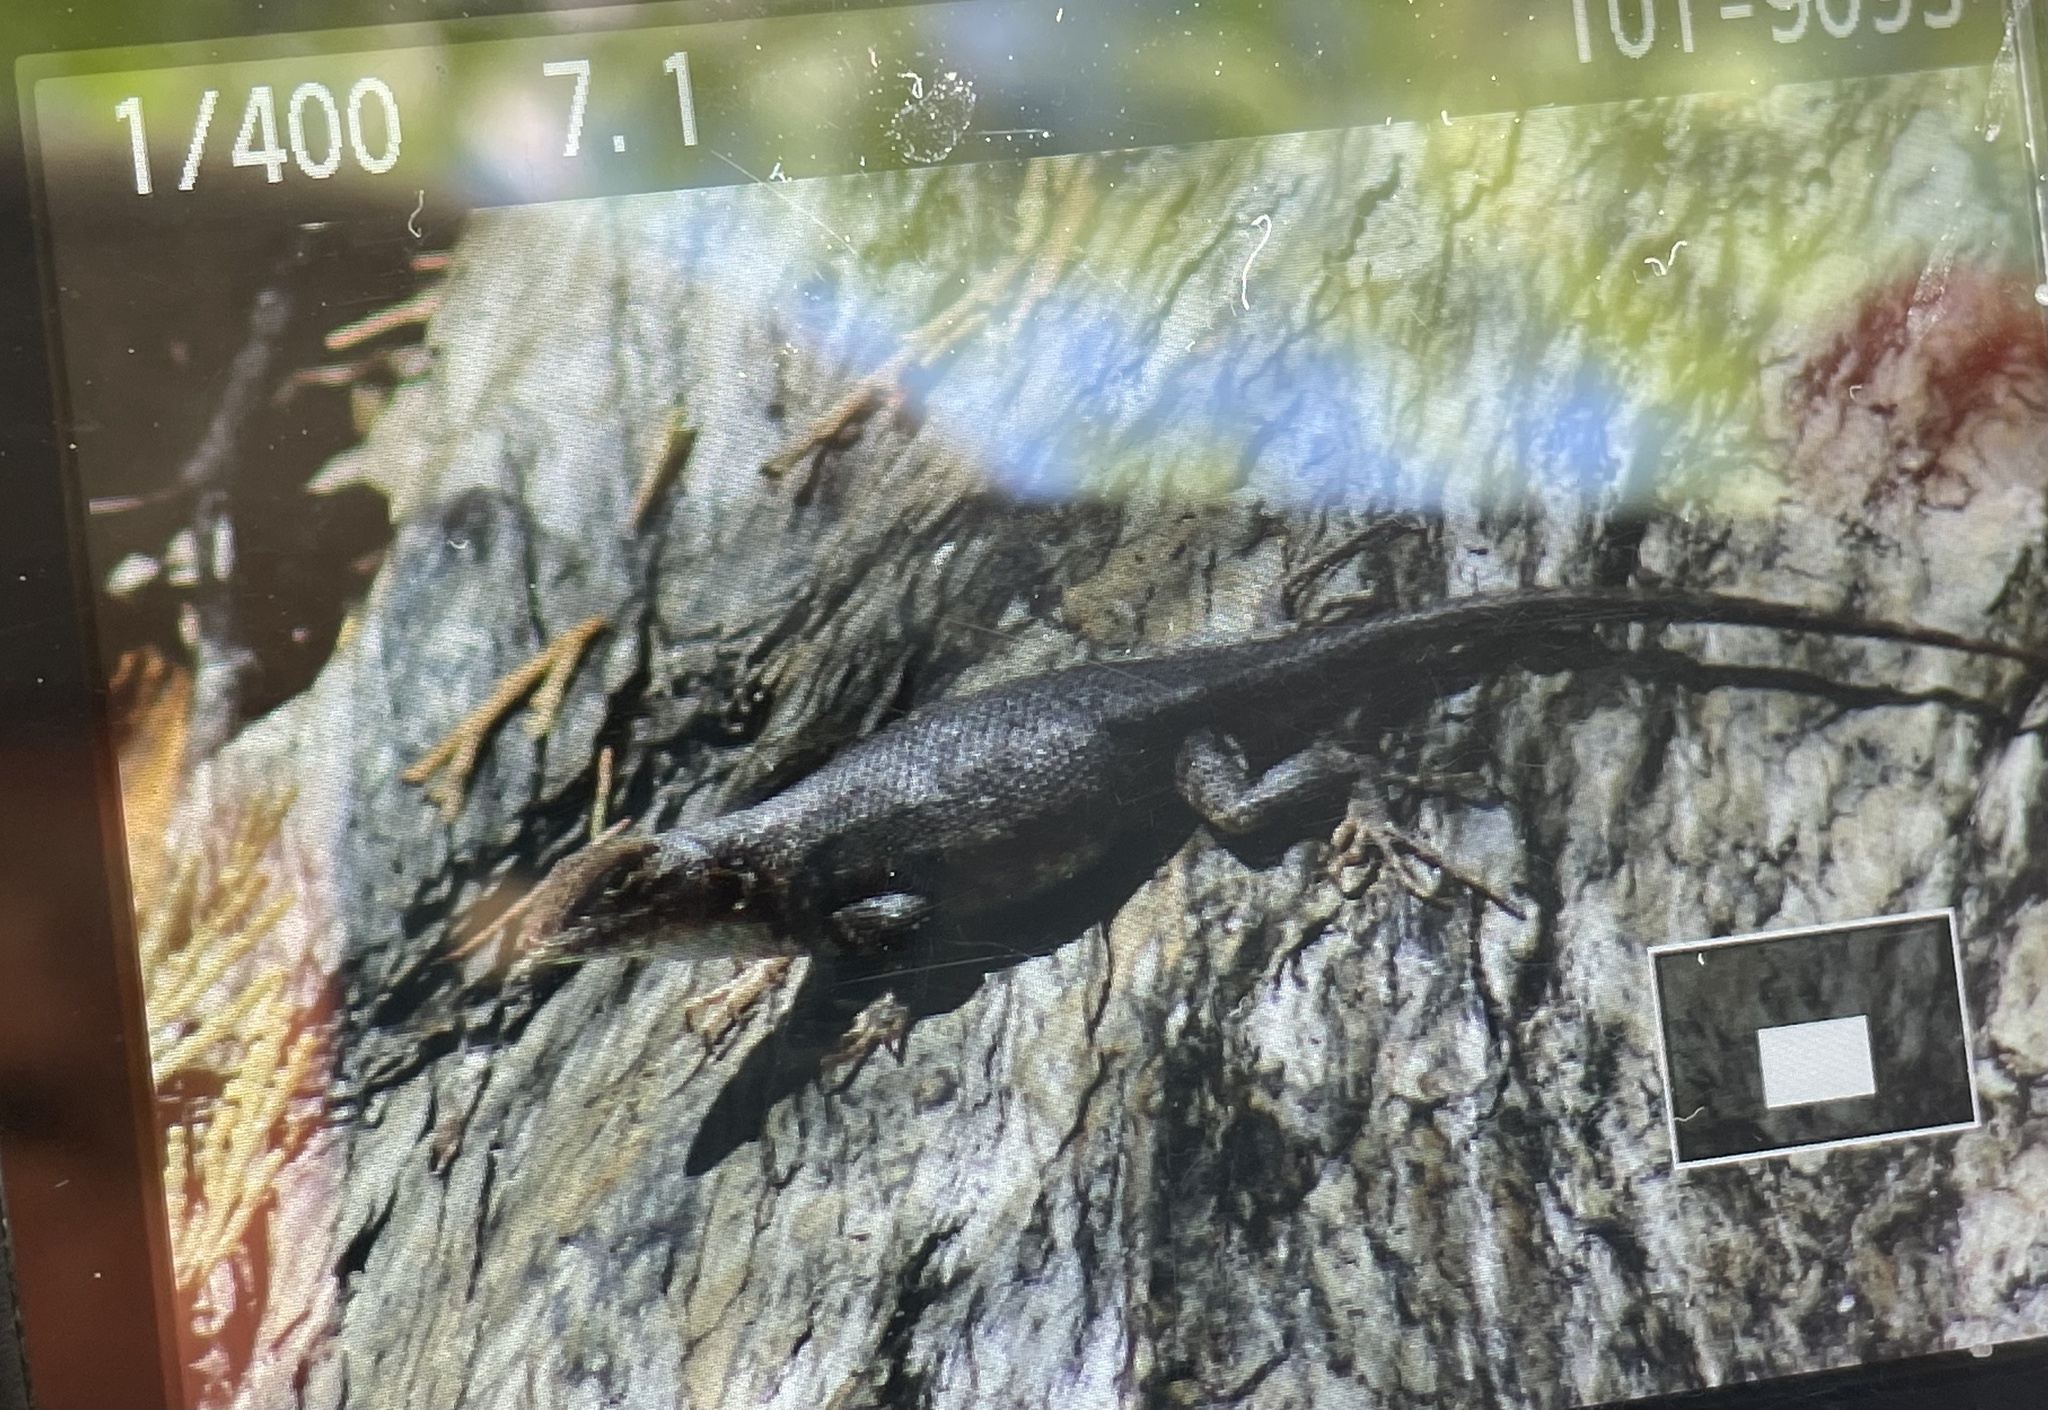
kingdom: Animalia
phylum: Chordata
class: Squamata
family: Phrynosomatidae
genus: Sceloporus
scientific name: Sceloporus graciosus
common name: Sagebrush lizard
